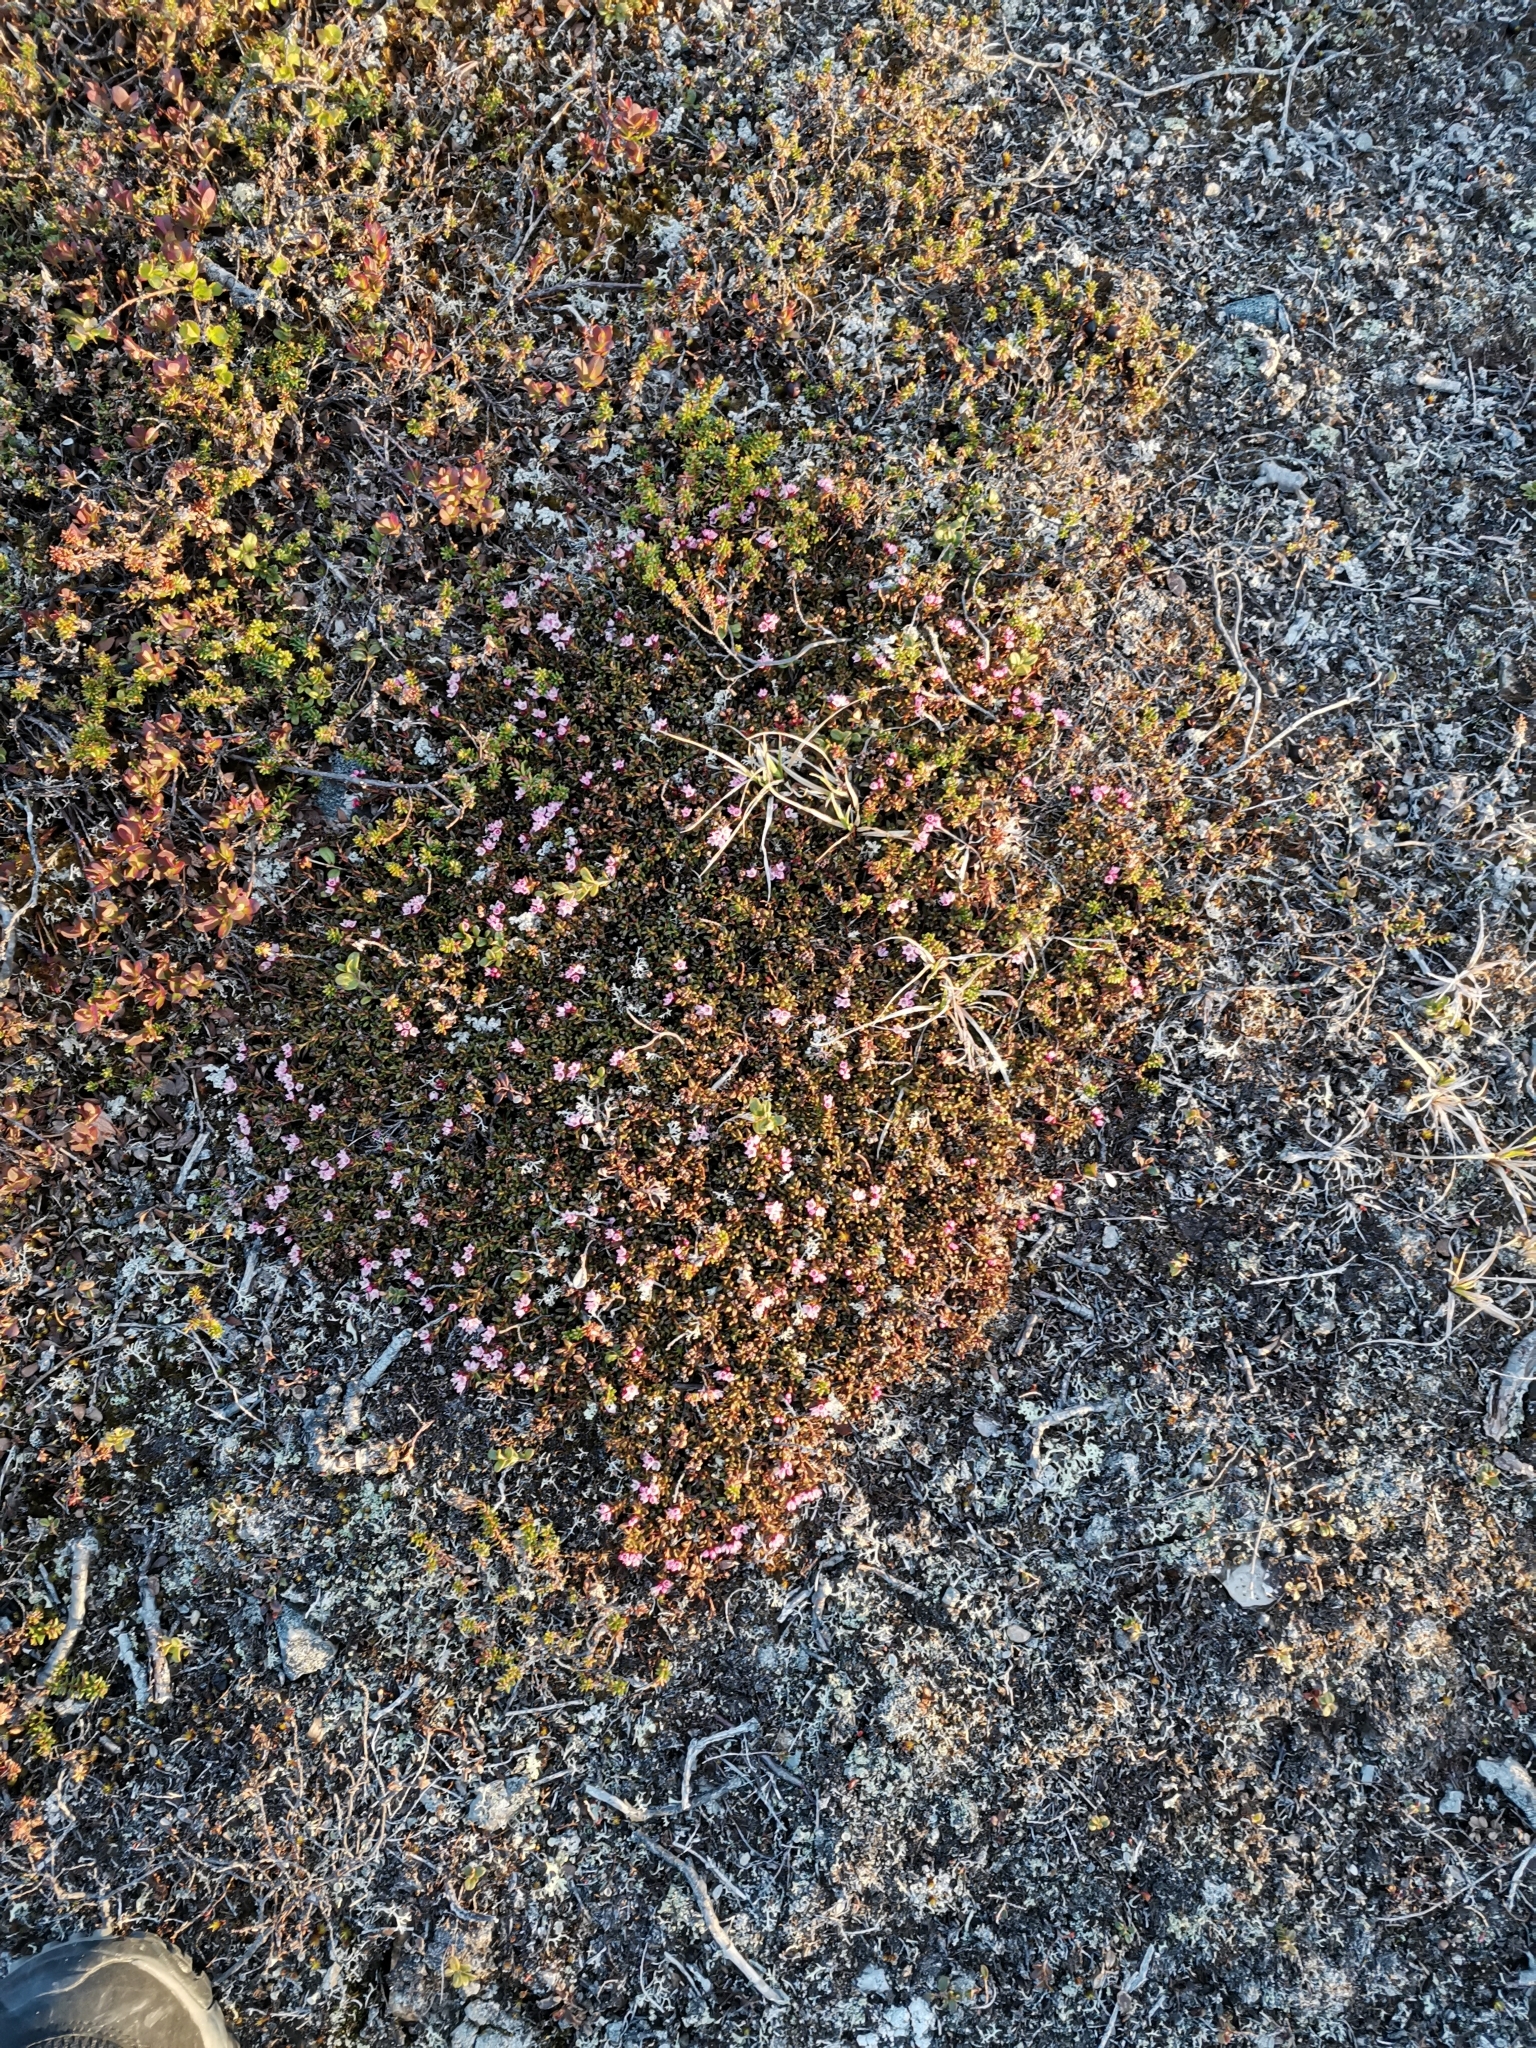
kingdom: Plantae
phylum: Tracheophyta
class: Magnoliopsida
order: Ericales
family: Ericaceae
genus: Kalmia
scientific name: Kalmia procumbens
